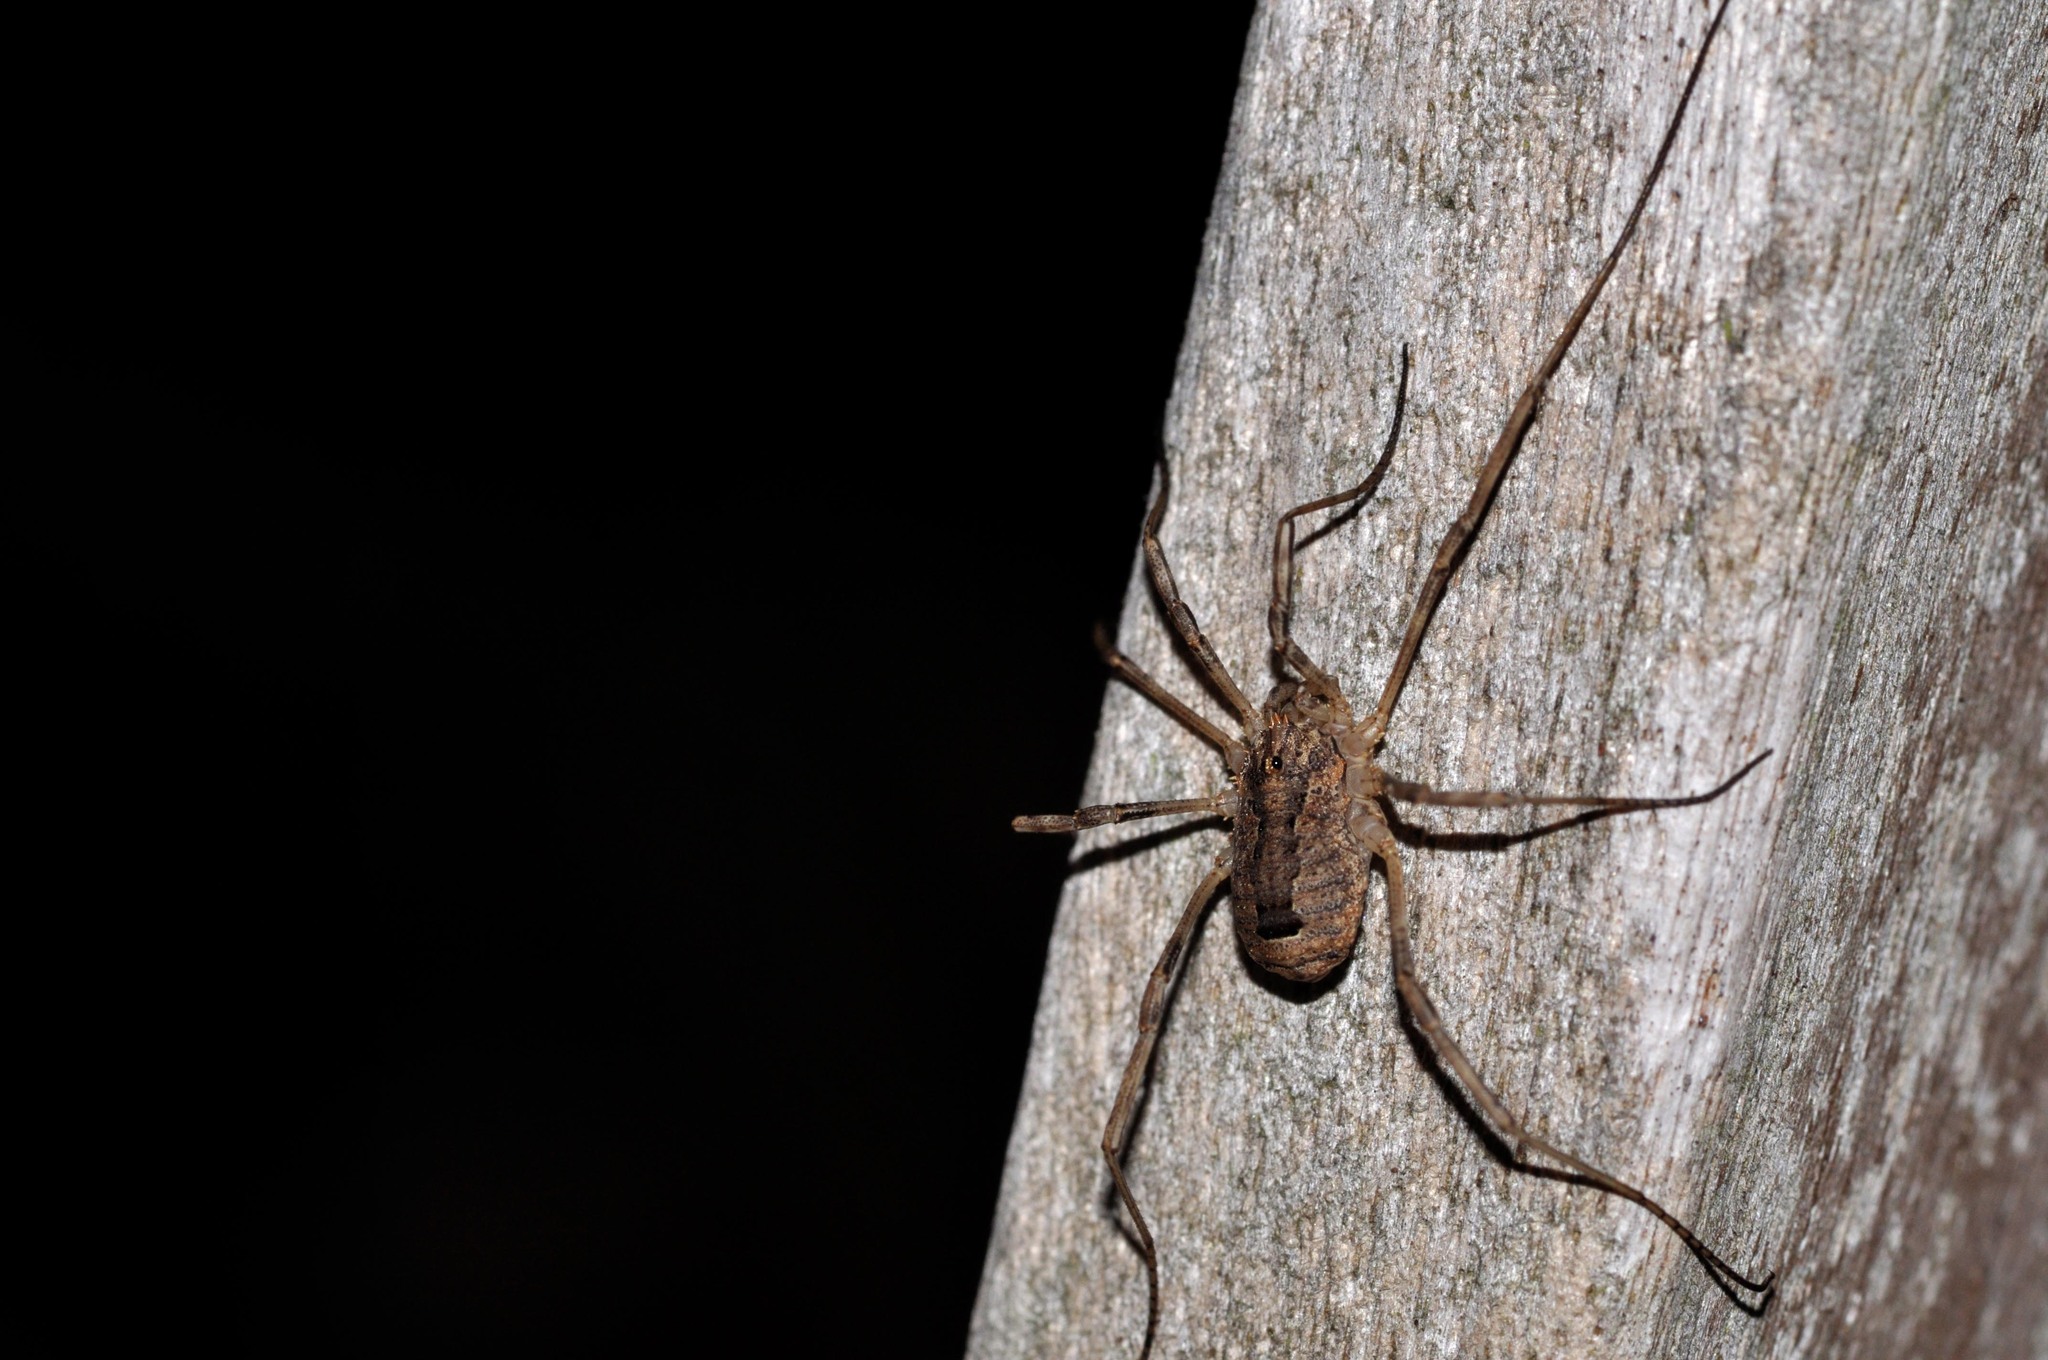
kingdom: Animalia
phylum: Arthropoda
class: Arachnida
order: Opiliones
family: Phalangiidae
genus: Odiellus
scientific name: Odiellus spinosus
